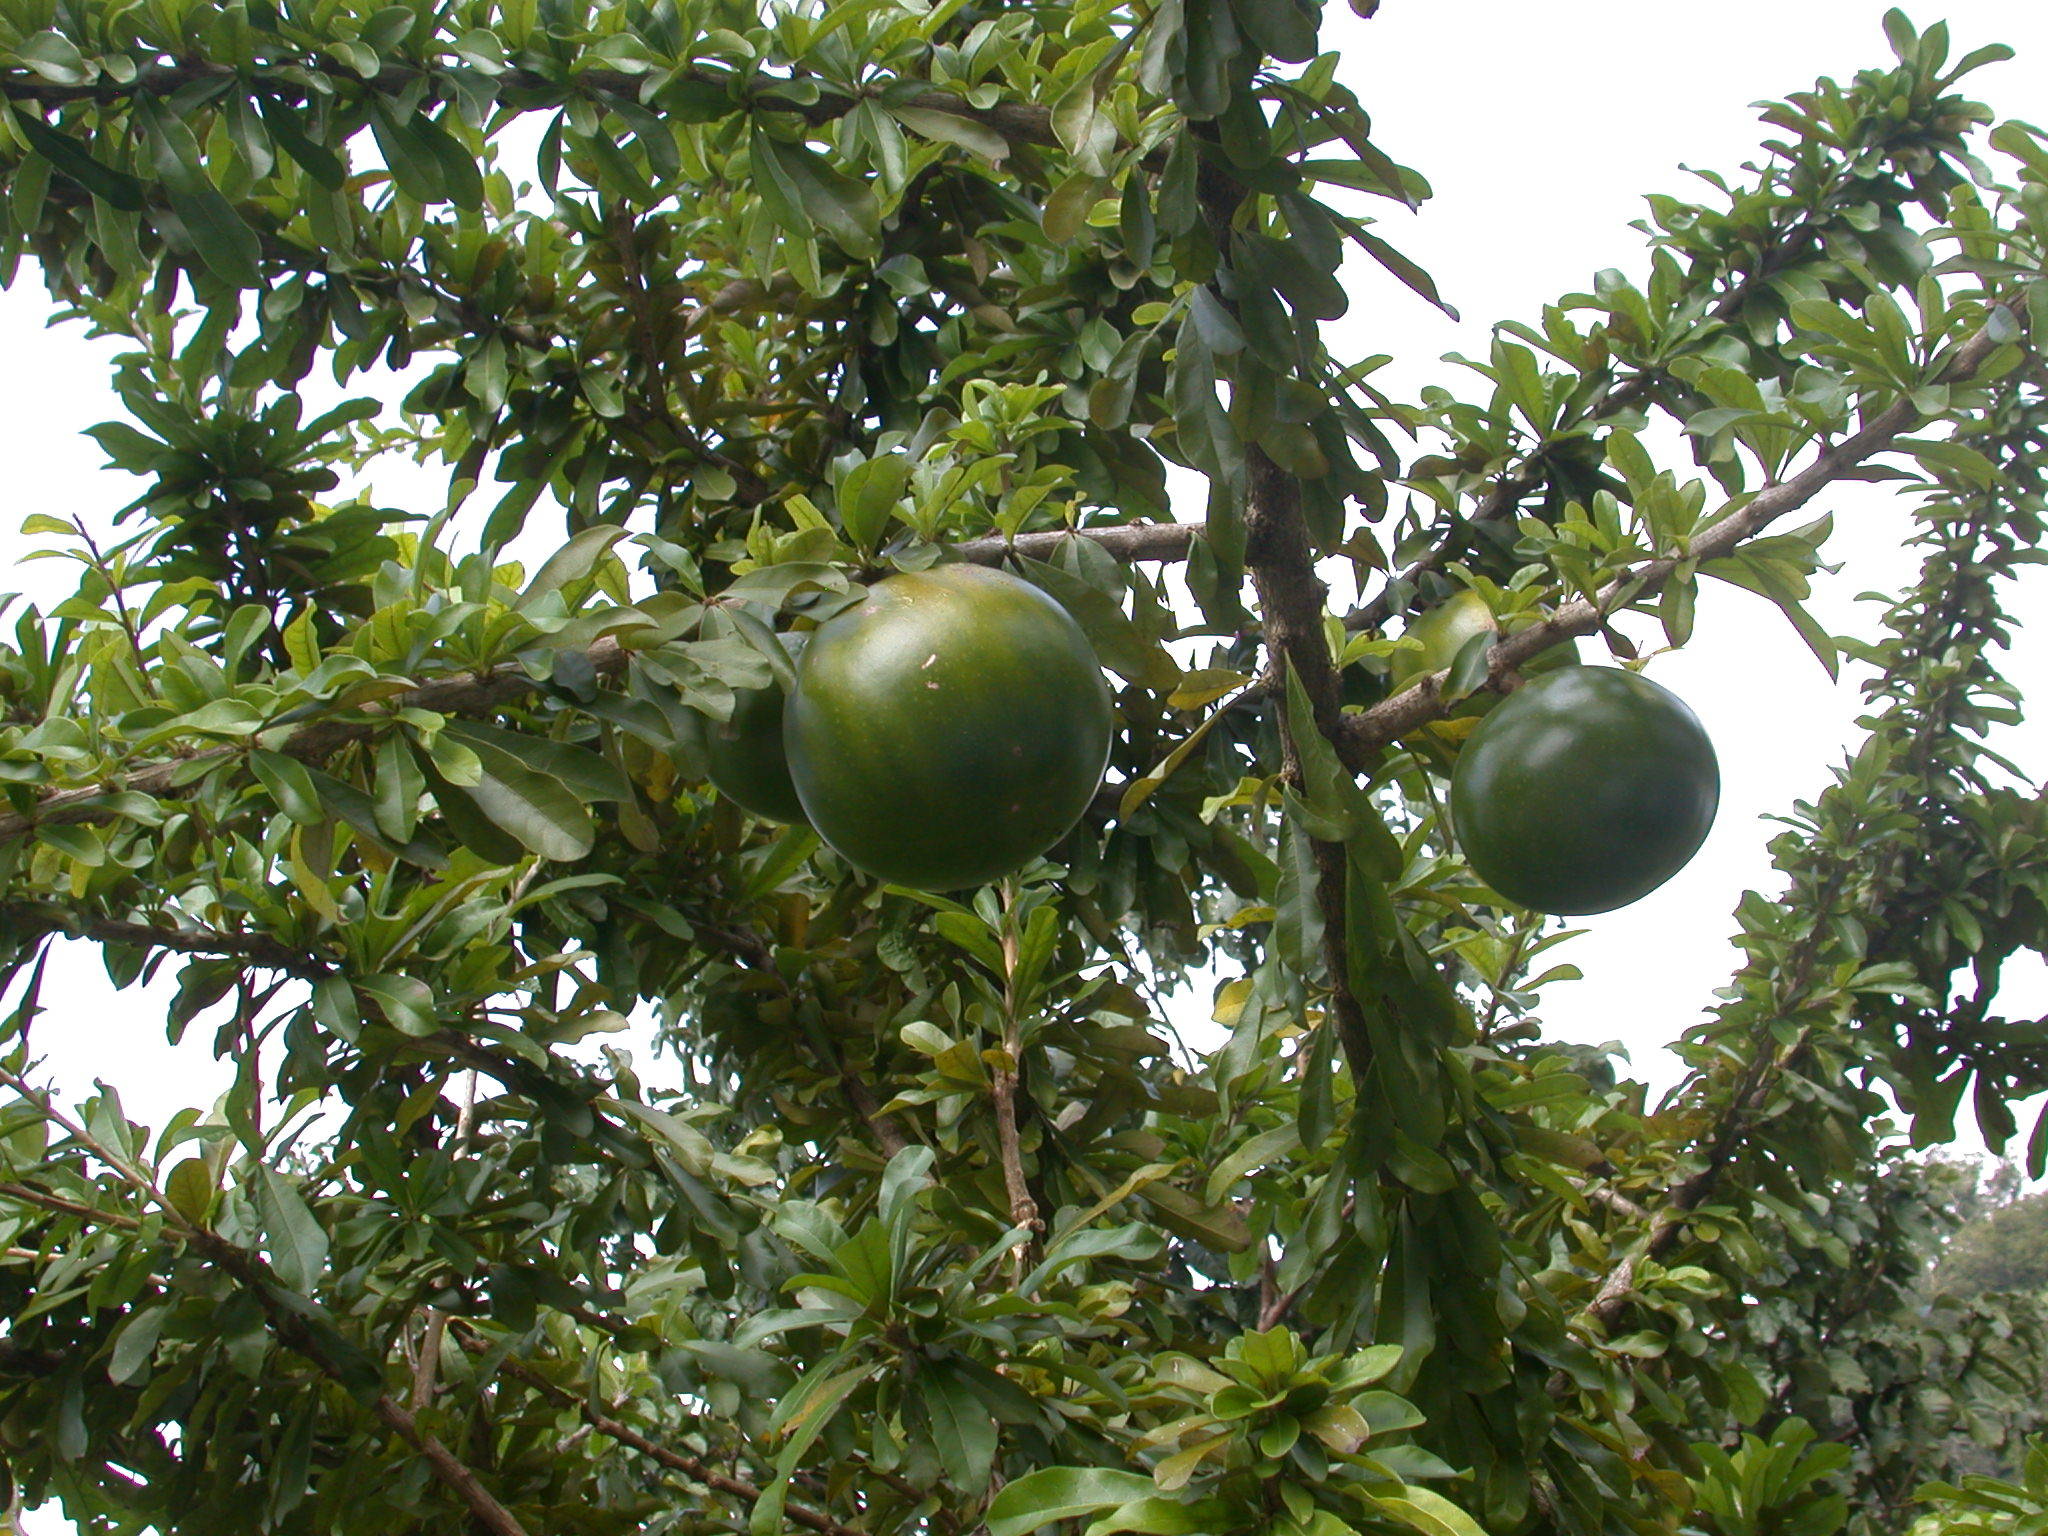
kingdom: Plantae
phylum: Tracheophyta
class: Magnoliopsida
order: Lamiales
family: Bignoniaceae
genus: Crescentia
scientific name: Crescentia cujete
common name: Calabash
